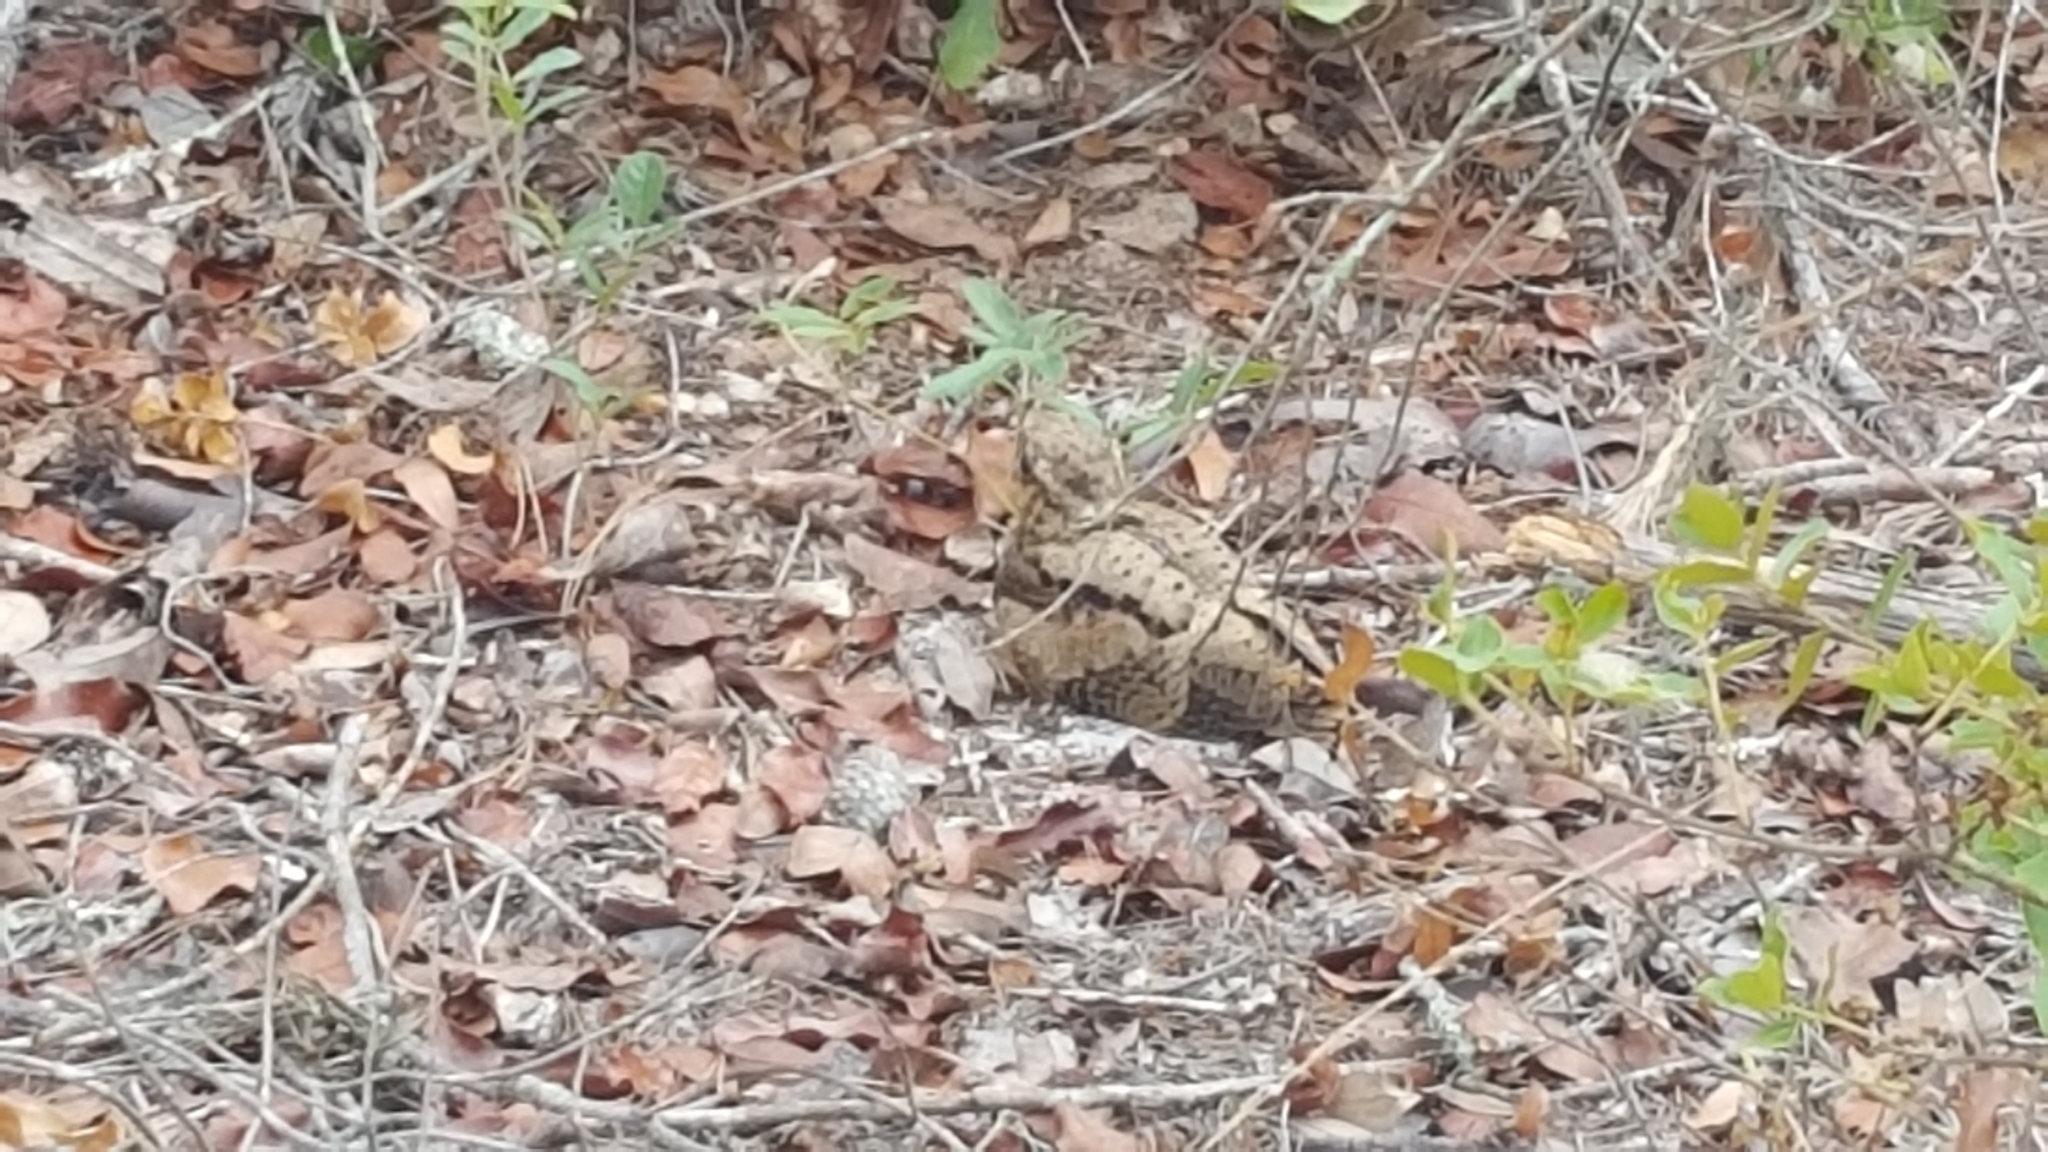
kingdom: Animalia
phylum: Chordata
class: Aves
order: Caprimulgiformes
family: Caprimulgidae
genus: Antrostomus
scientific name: Antrostomus carolinensis
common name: Chuck-will's-widow
